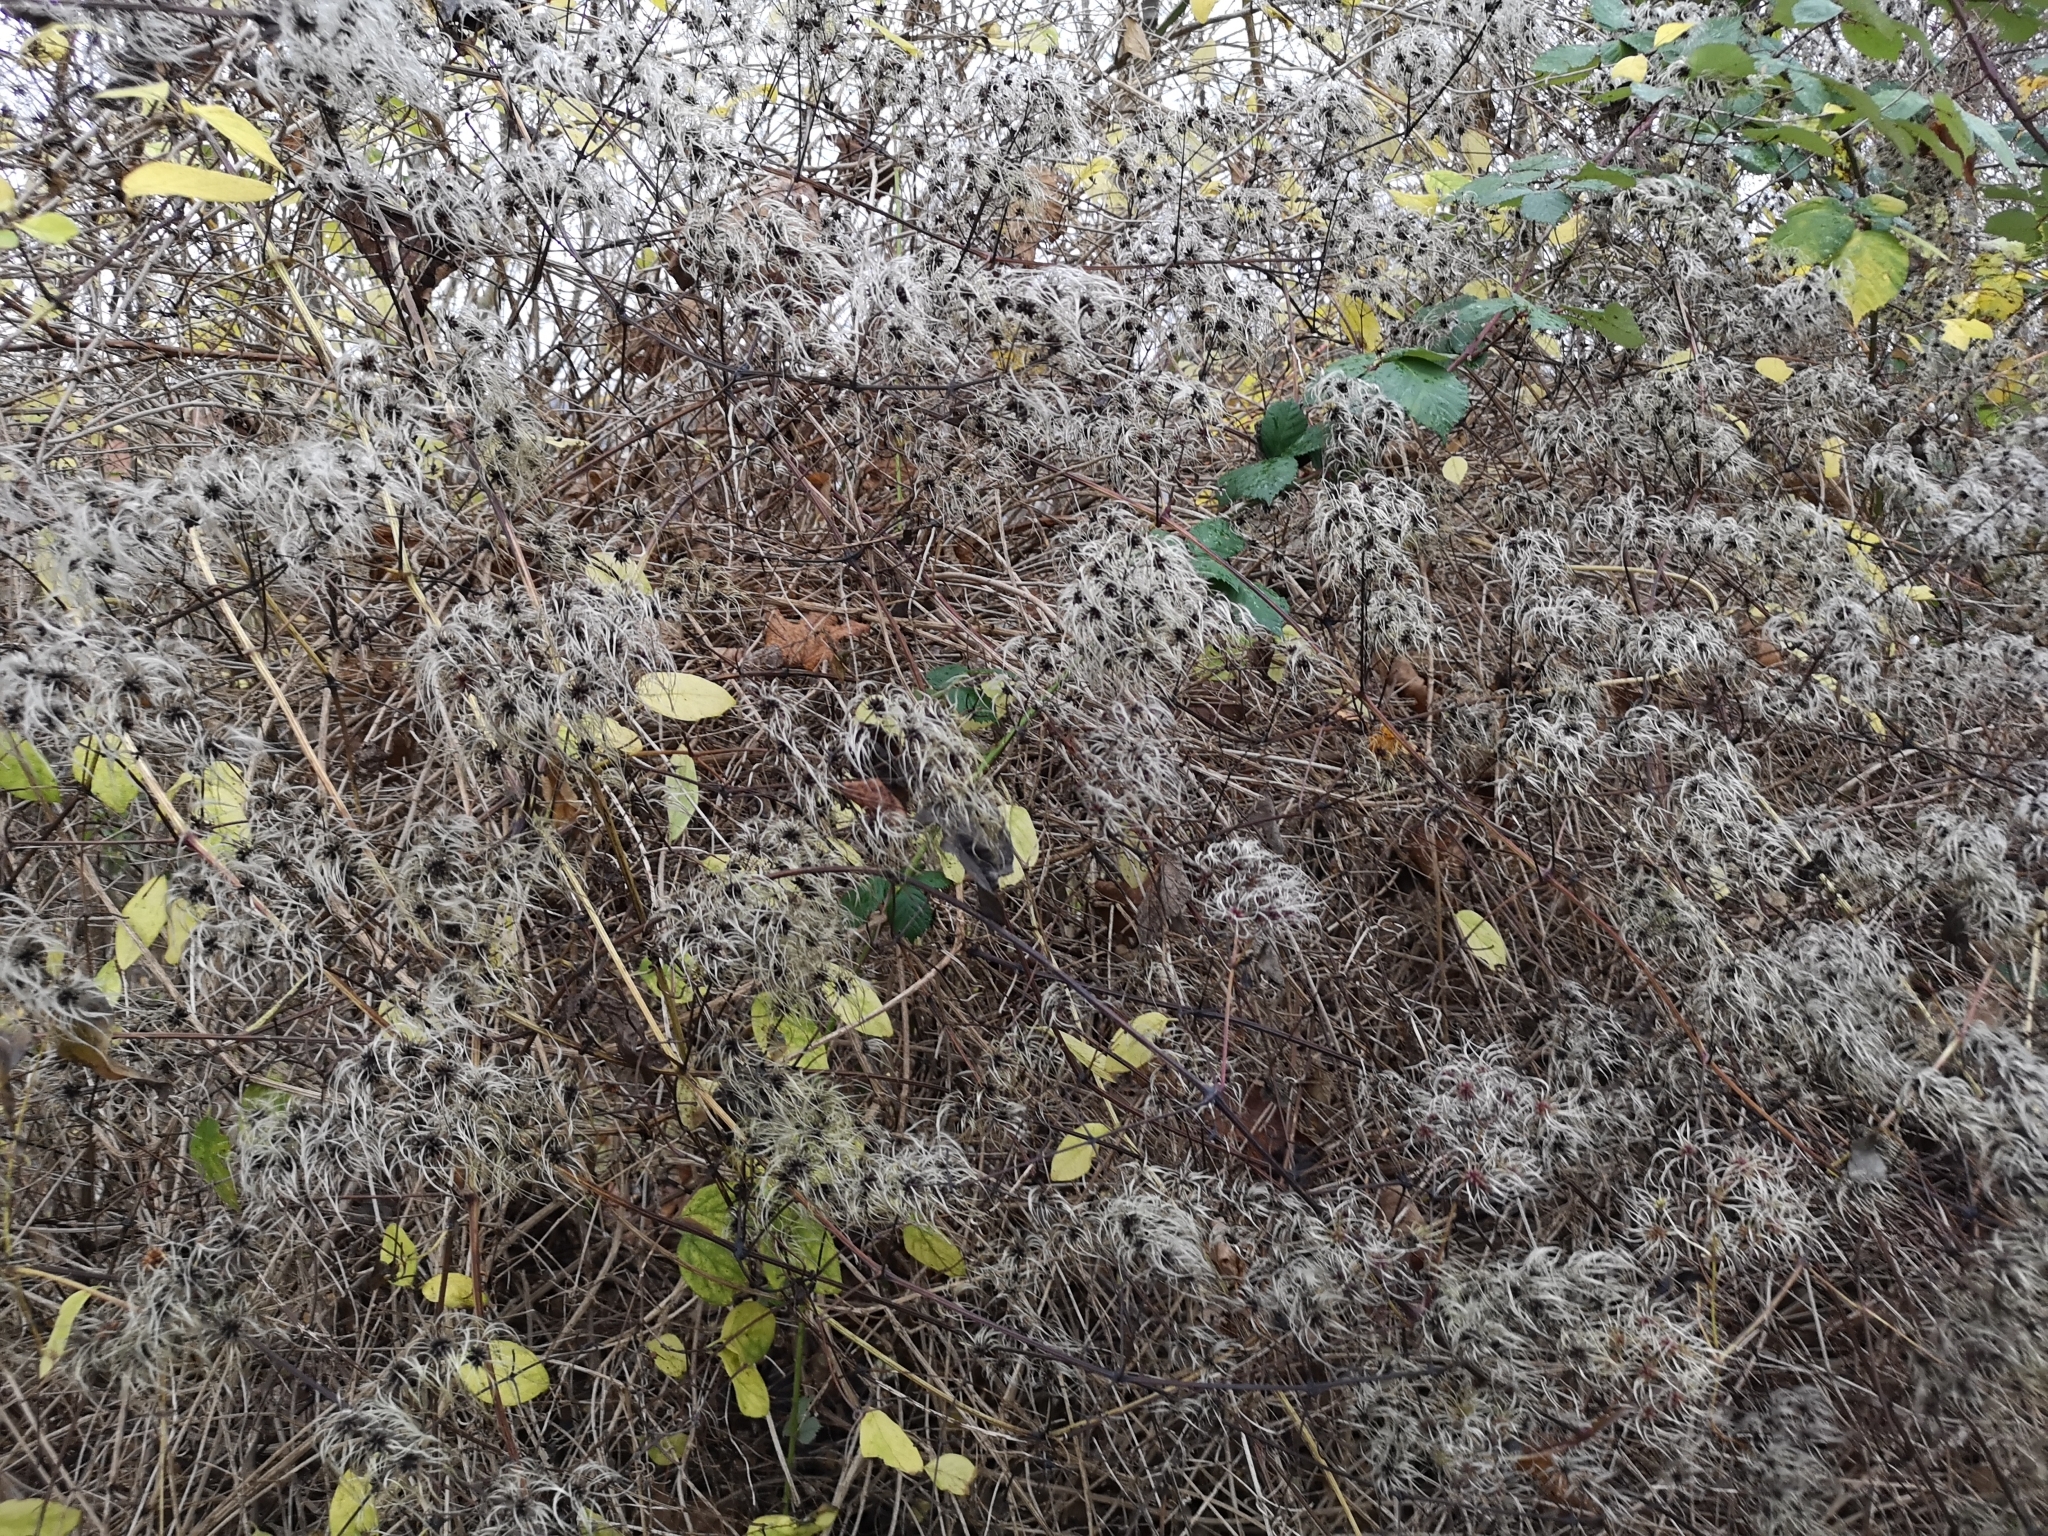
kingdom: Plantae
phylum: Tracheophyta
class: Magnoliopsida
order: Ranunculales
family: Ranunculaceae
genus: Clematis
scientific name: Clematis vitalba
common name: Evergreen clematis
